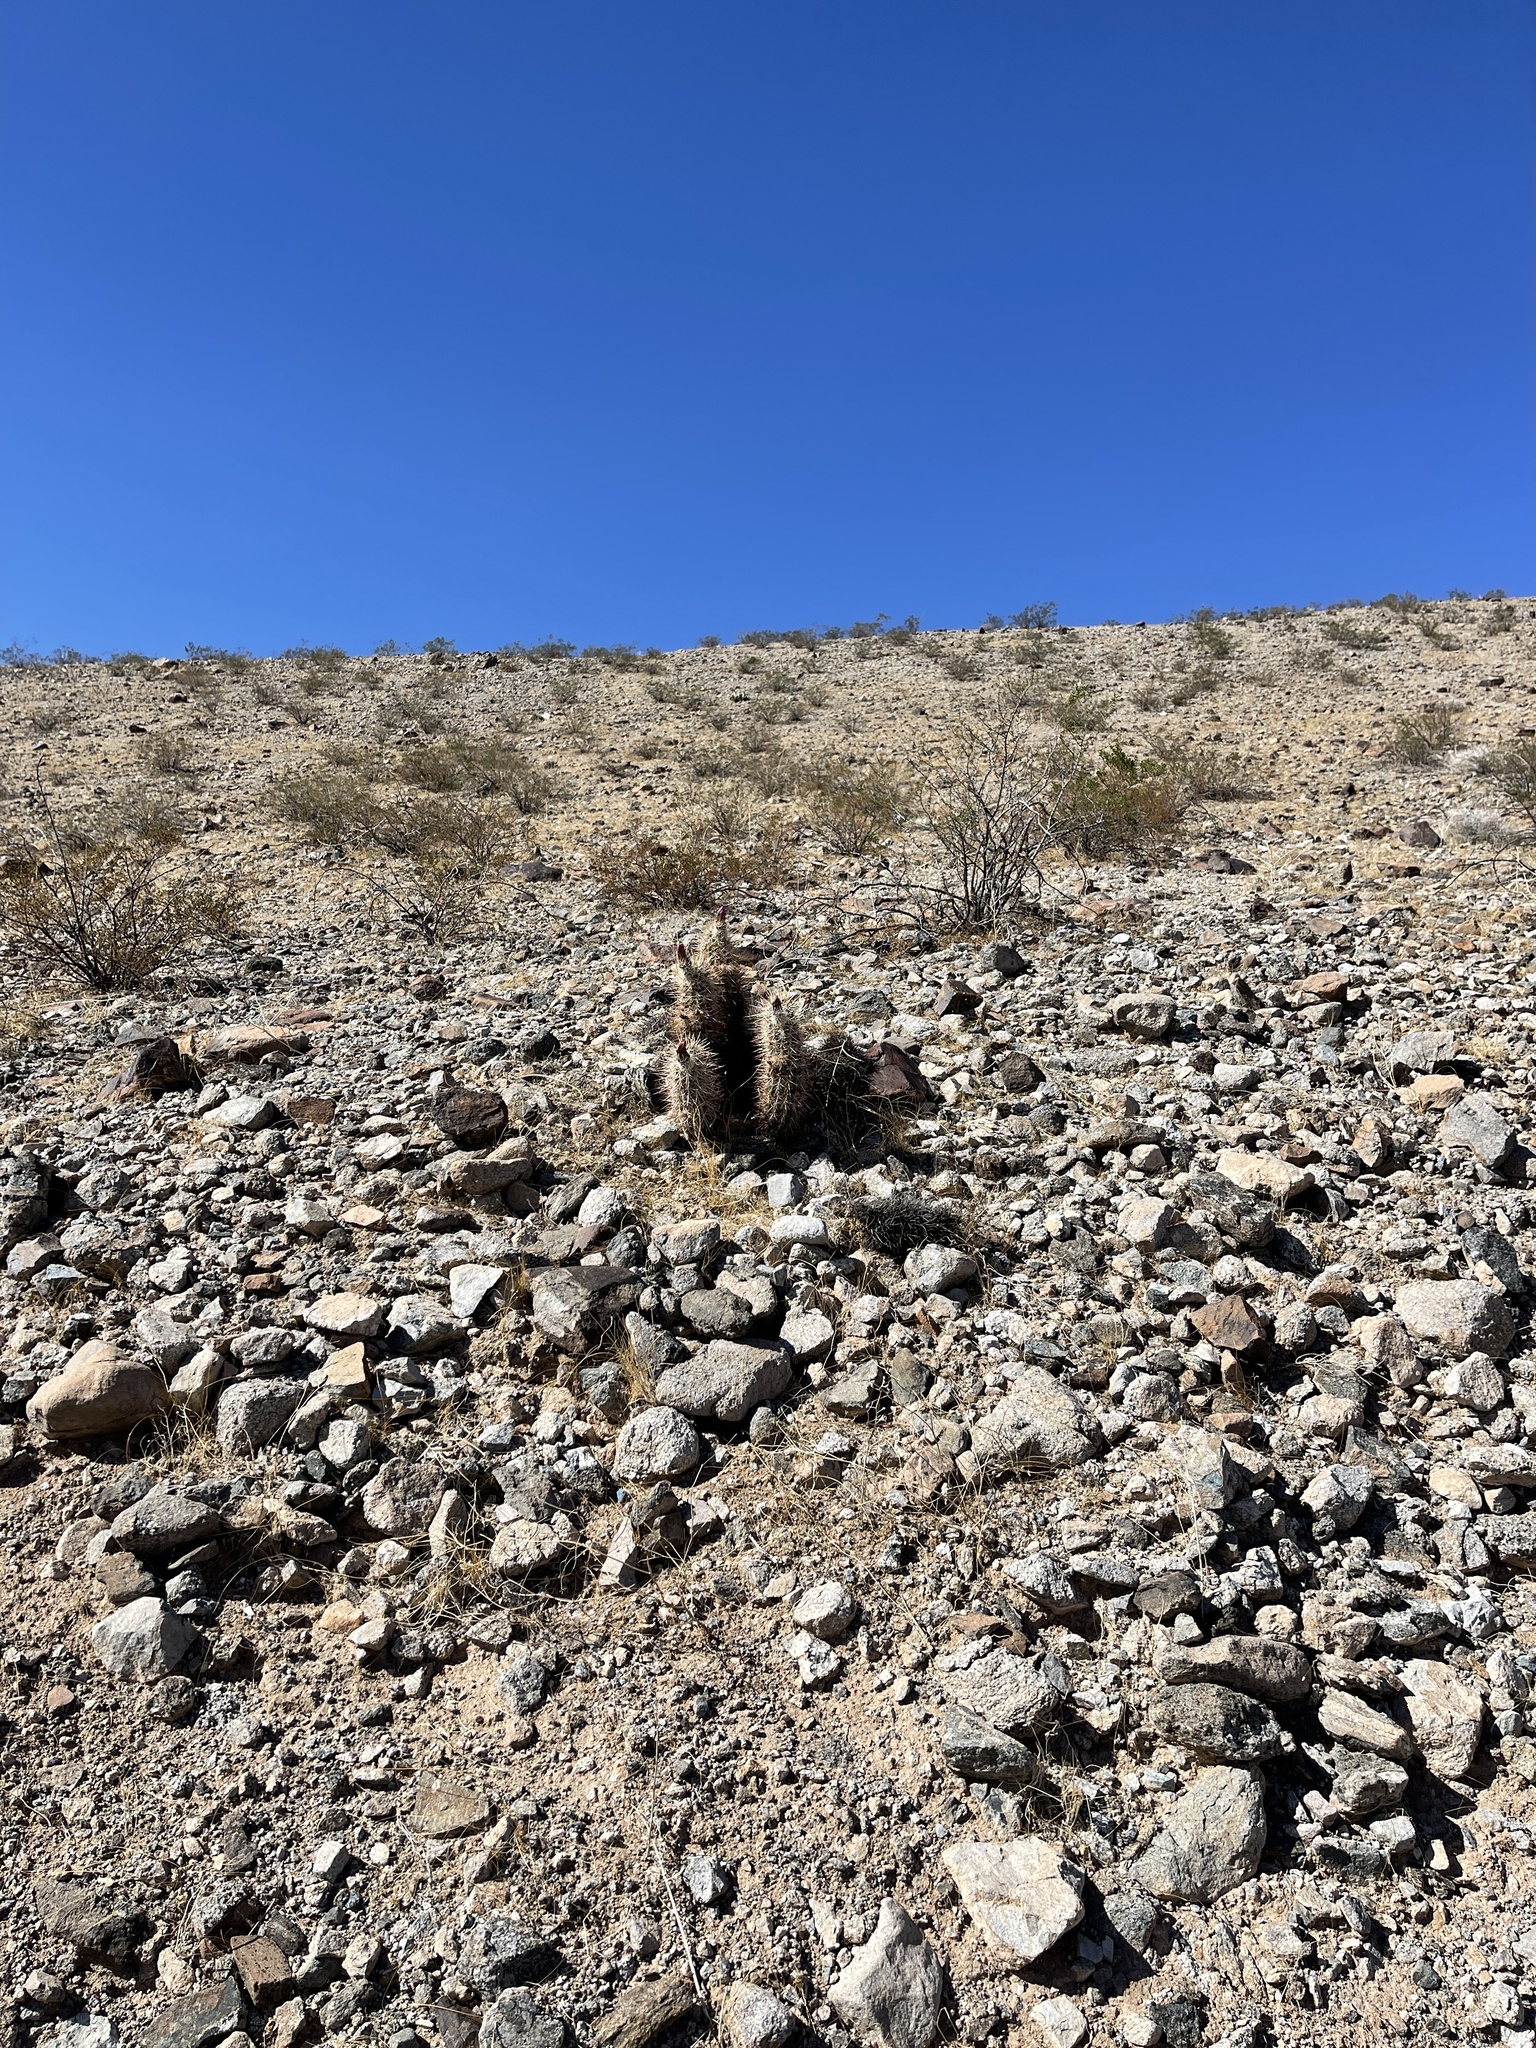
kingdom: Plantae
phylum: Tracheophyta
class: Magnoliopsida
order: Caryophyllales
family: Cactaceae
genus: Echinocereus
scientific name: Echinocereus engelmannii
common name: Engelmann's hedgehog cactus
